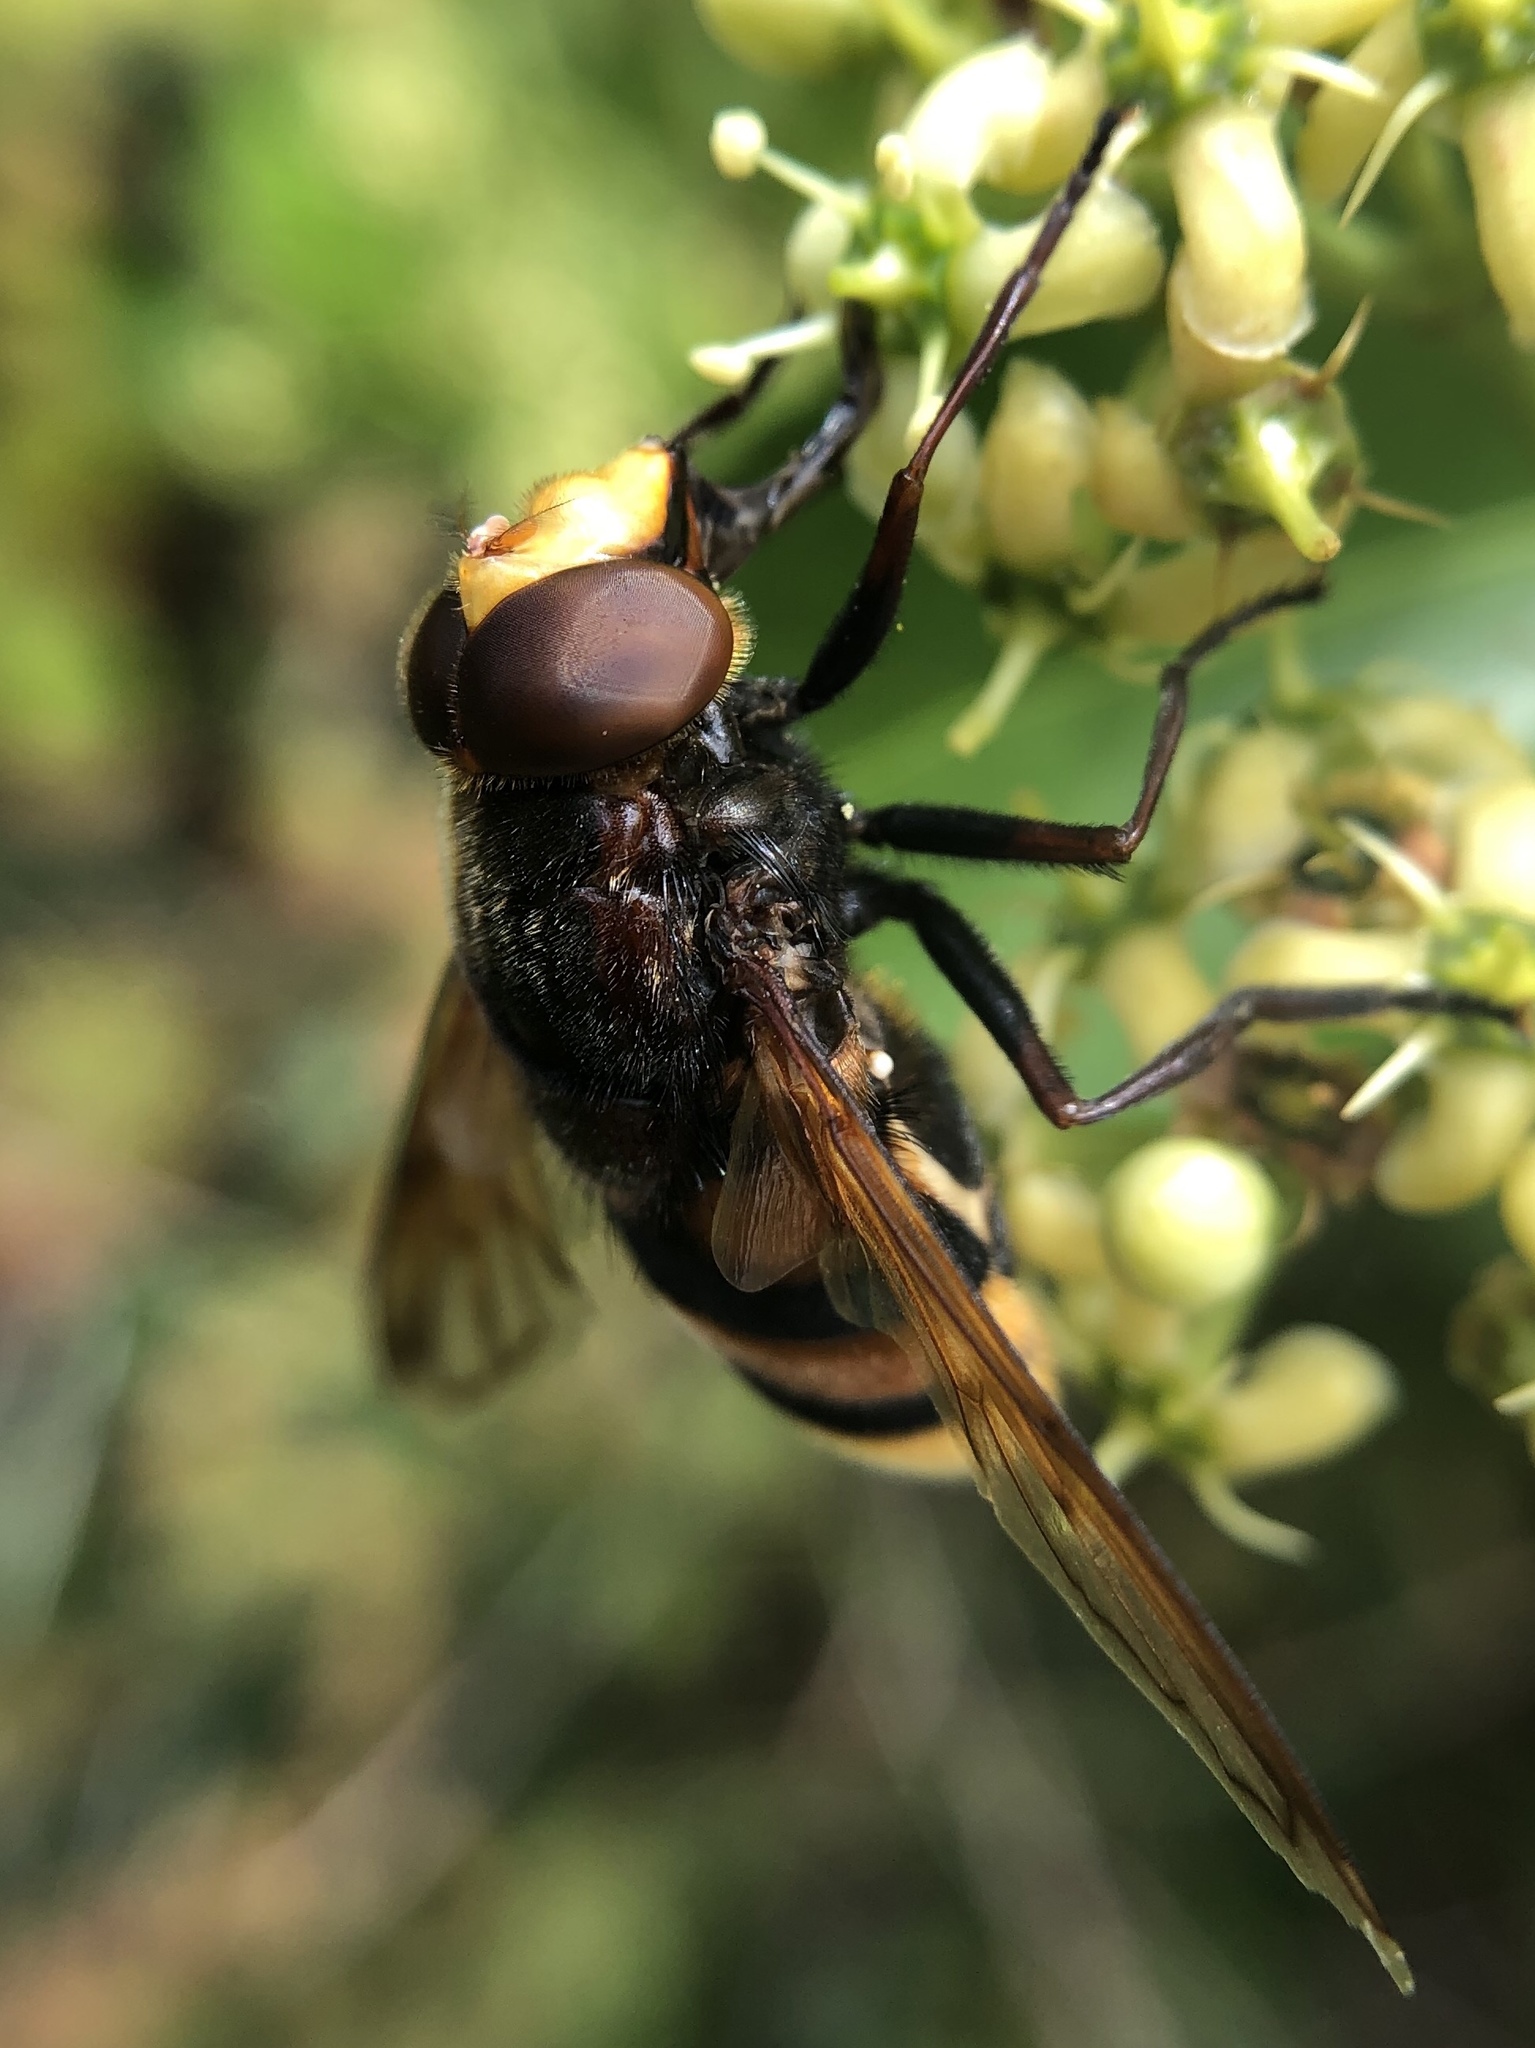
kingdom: Animalia
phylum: Arthropoda
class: Insecta
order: Diptera
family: Syrphidae
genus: Volucella
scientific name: Volucella zonaria
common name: Hornet hoverfly
